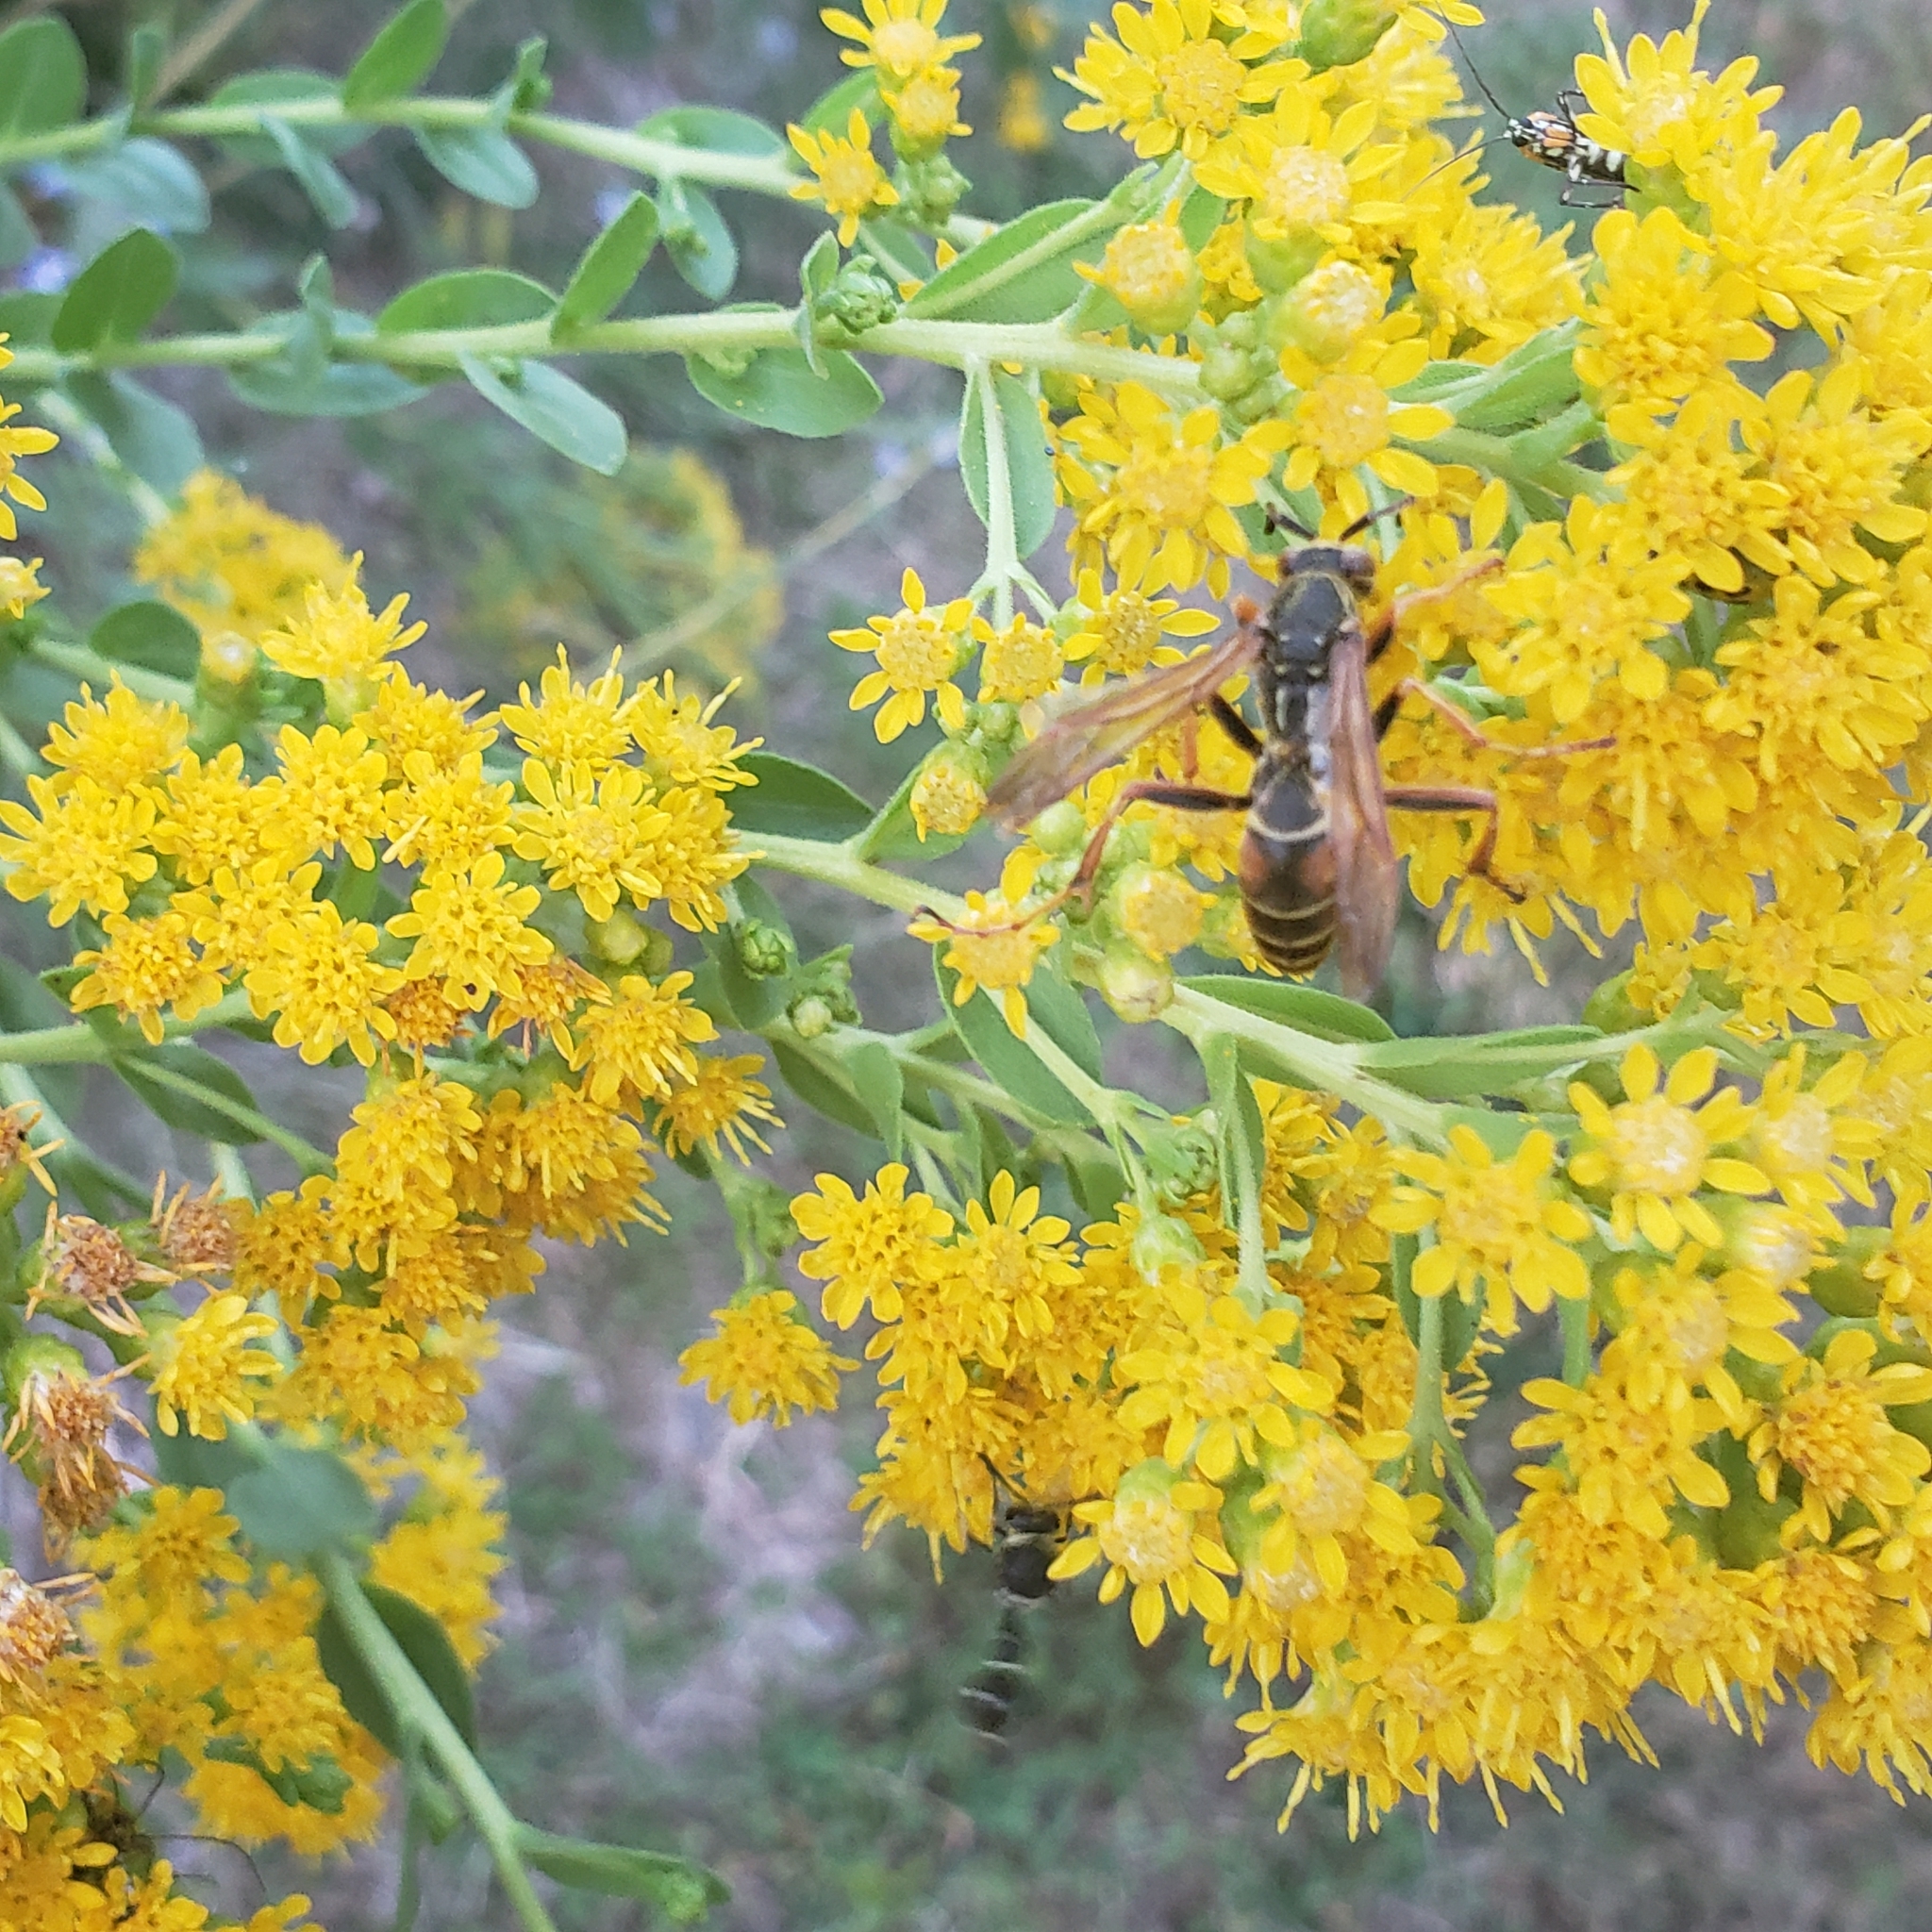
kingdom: Animalia
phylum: Arthropoda
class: Insecta
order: Hymenoptera
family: Eumenidae
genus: Polistes
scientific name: Polistes fuscatus
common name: Dark paper wasp
